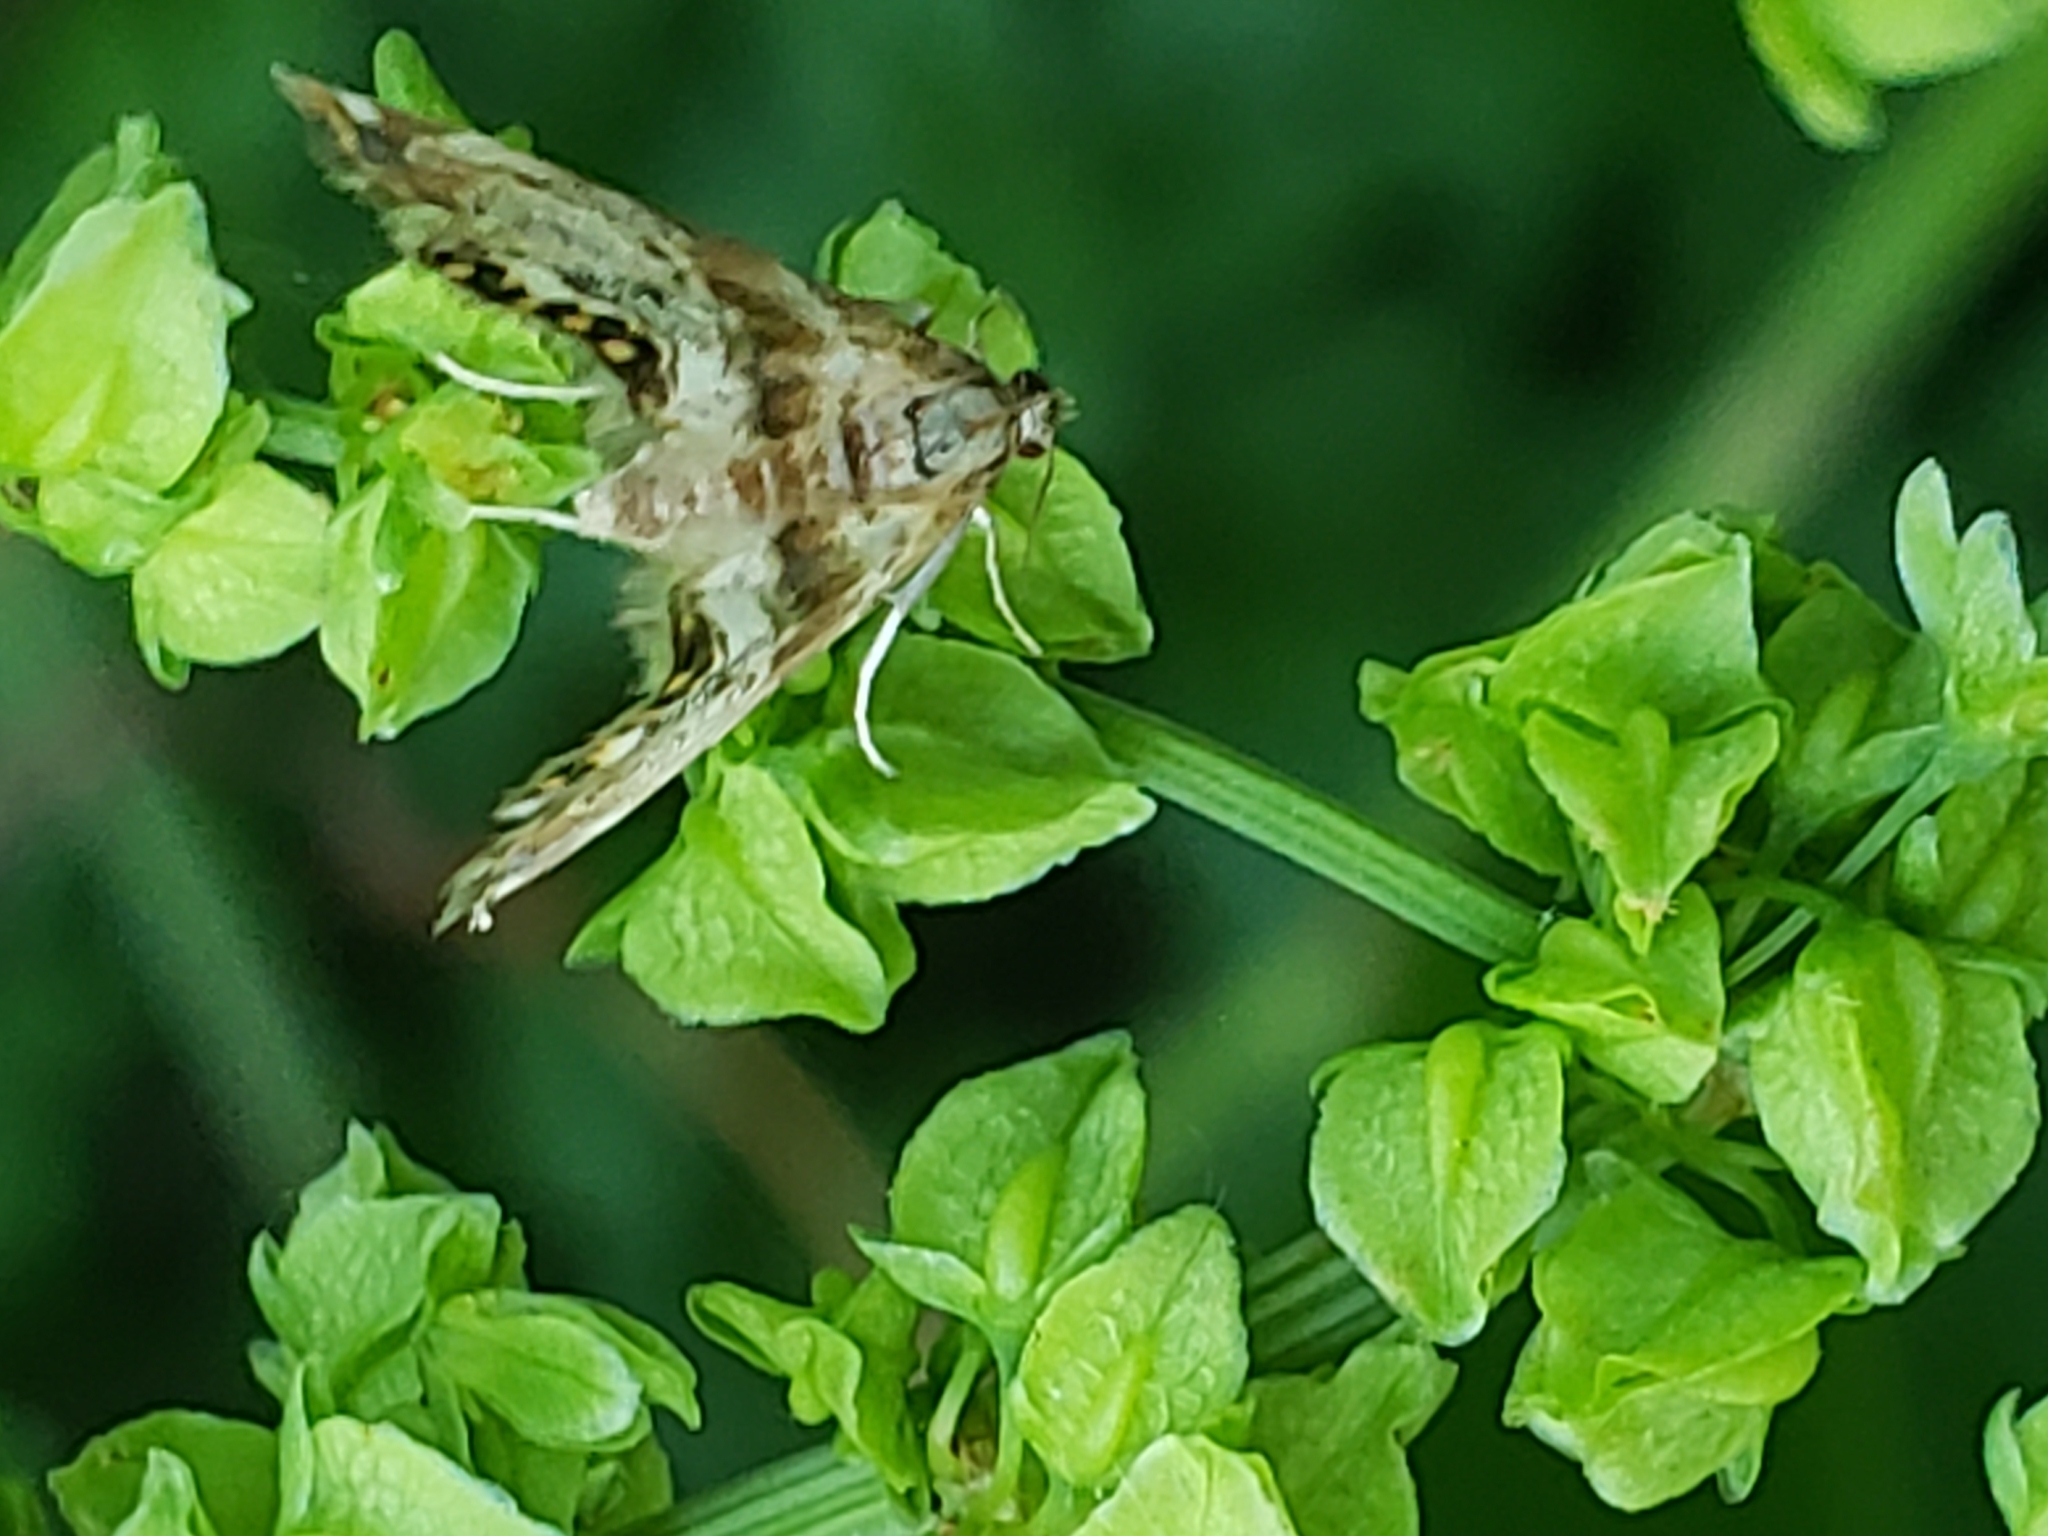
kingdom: Animalia
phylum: Arthropoda
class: Insecta
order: Lepidoptera
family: Crambidae
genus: Petrophila
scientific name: Petrophila fulicalis
